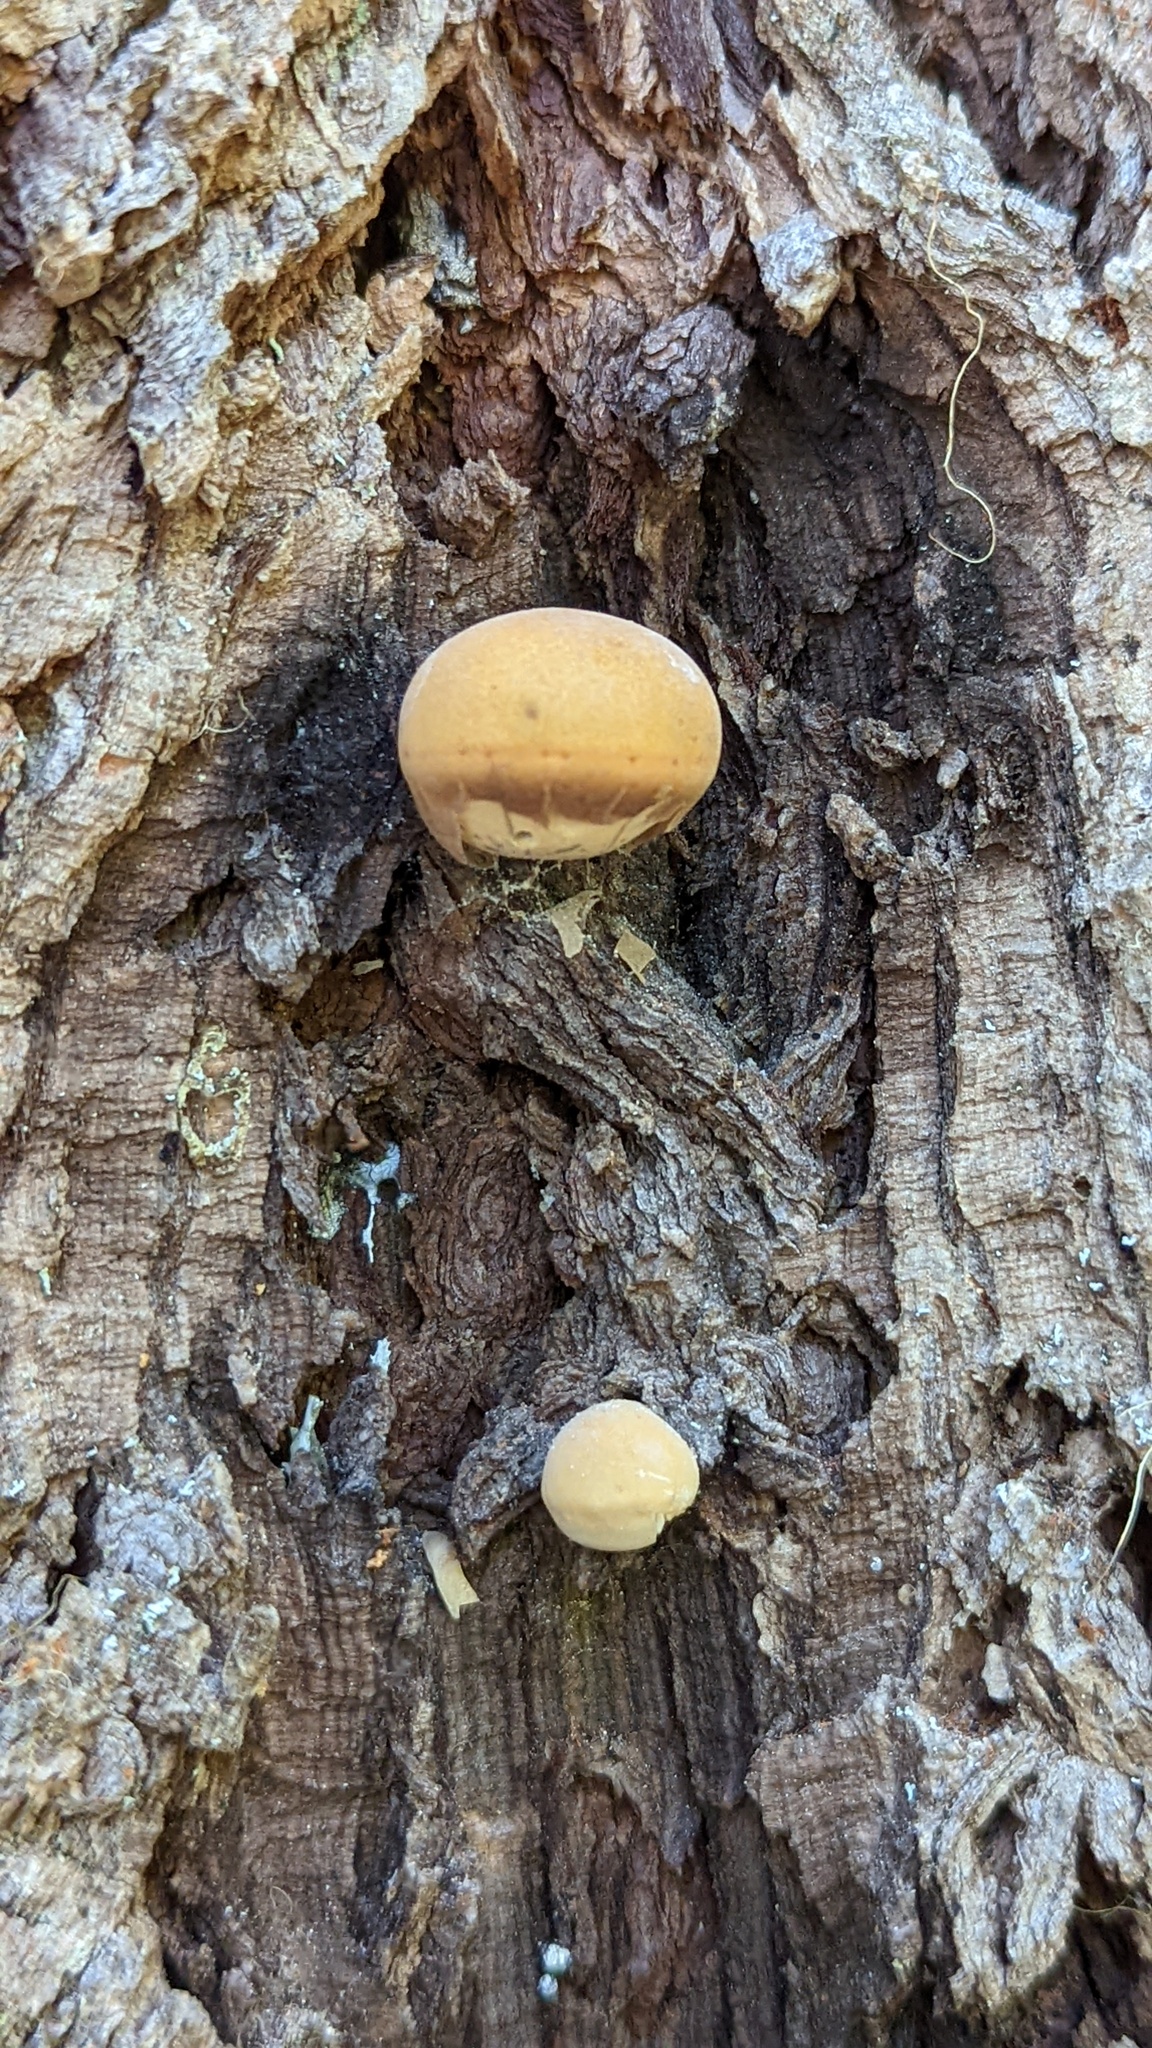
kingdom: Fungi
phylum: Basidiomycota
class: Agaricomycetes
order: Polyporales
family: Polyporaceae
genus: Cryptoporus
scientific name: Cryptoporus volvatus
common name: Veiled polypore
